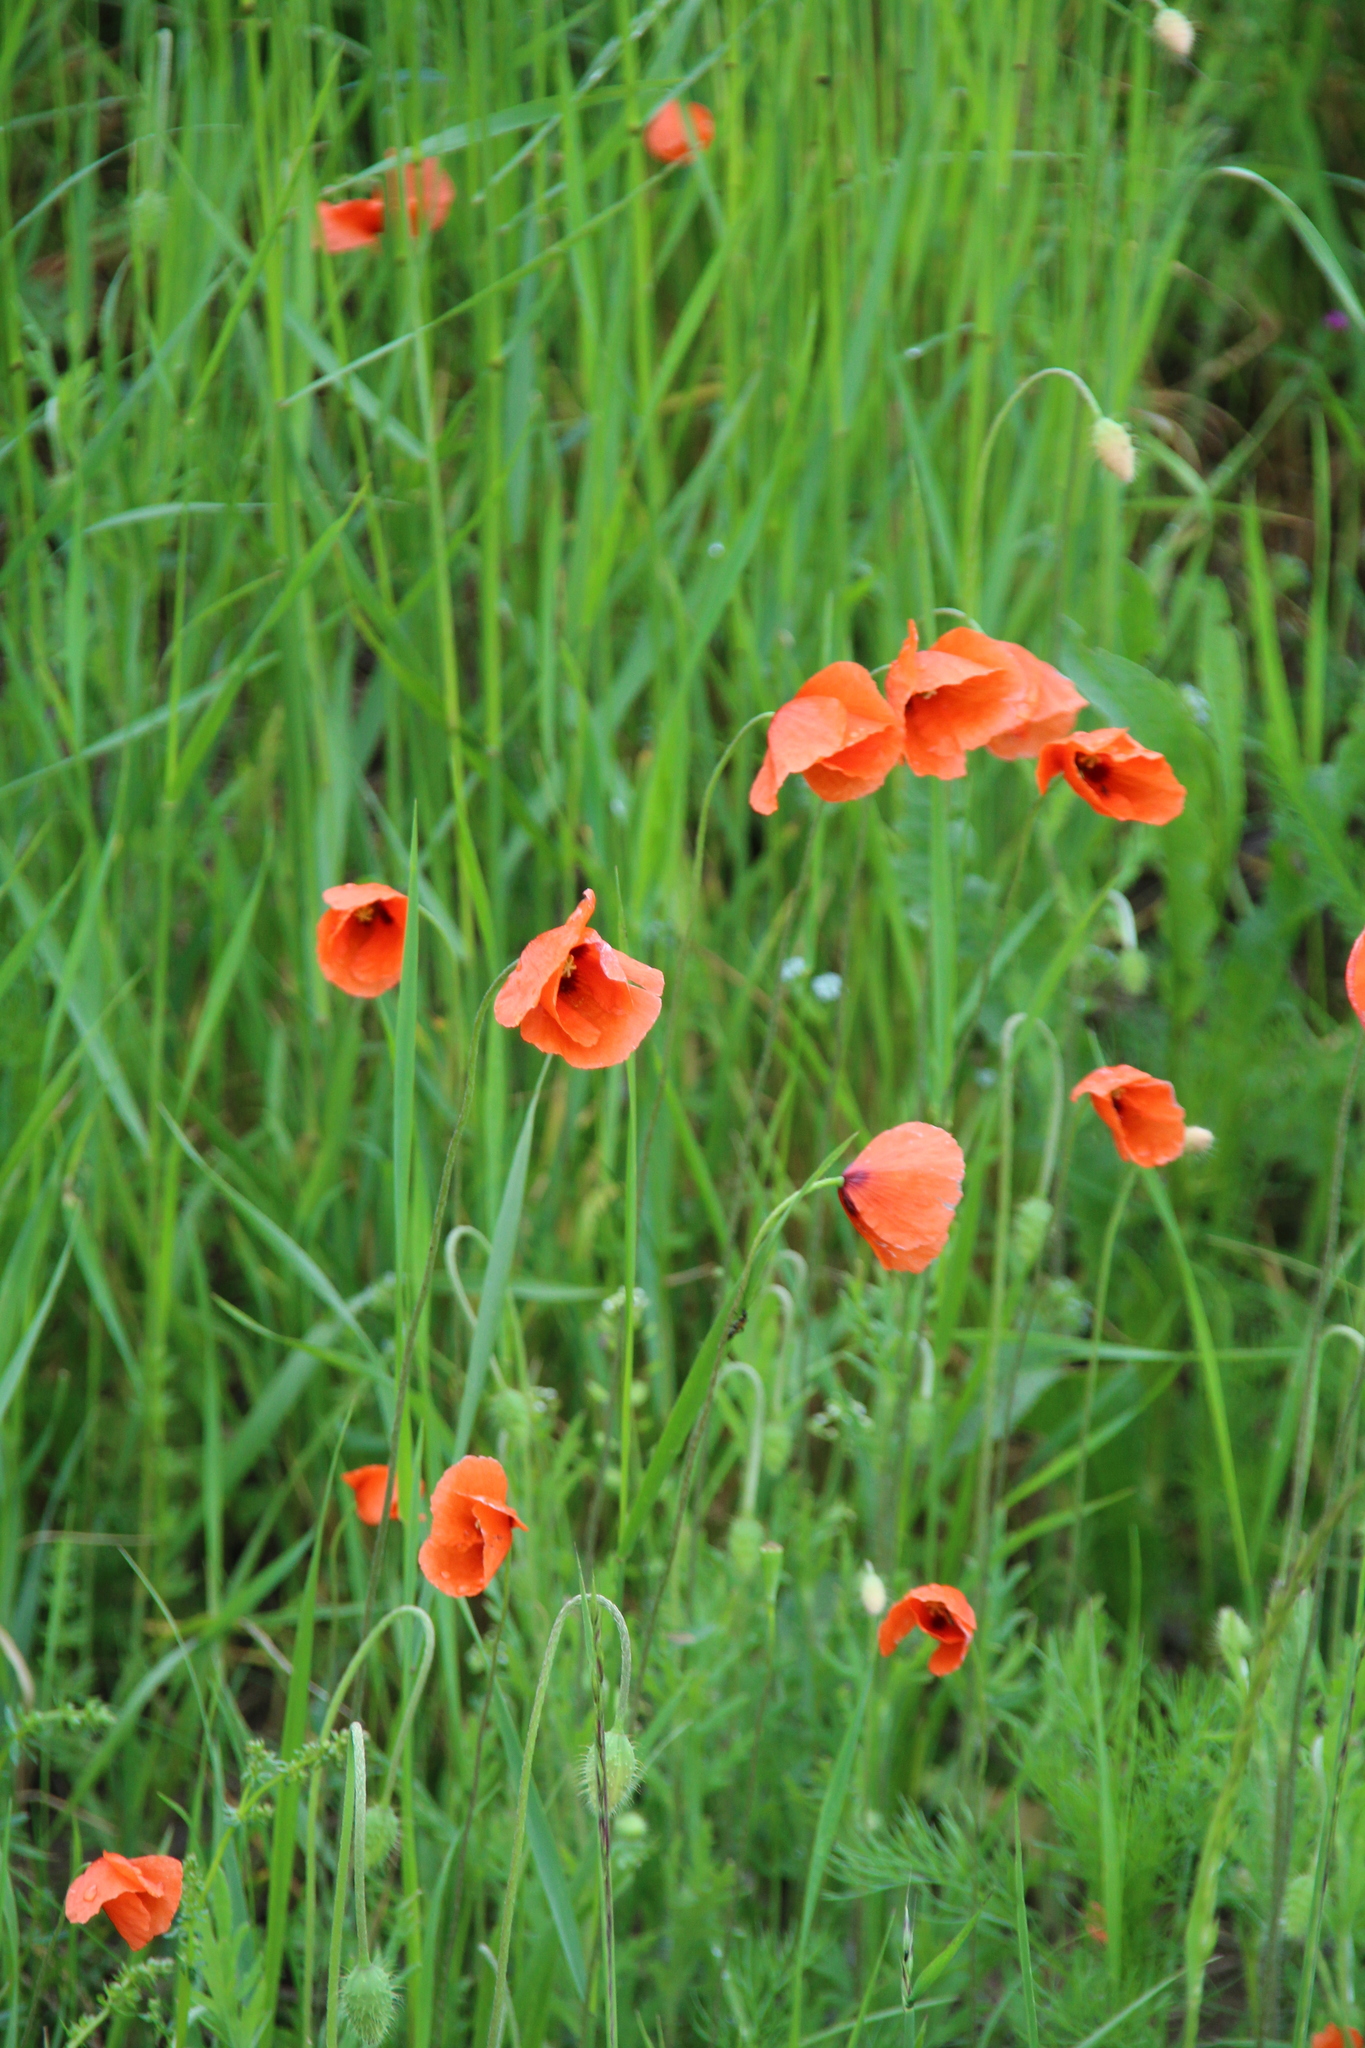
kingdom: Plantae
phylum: Tracheophyta
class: Magnoliopsida
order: Ranunculales
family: Papaveraceae
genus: Papaver
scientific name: Papaver dubium
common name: Long-headed poppy
